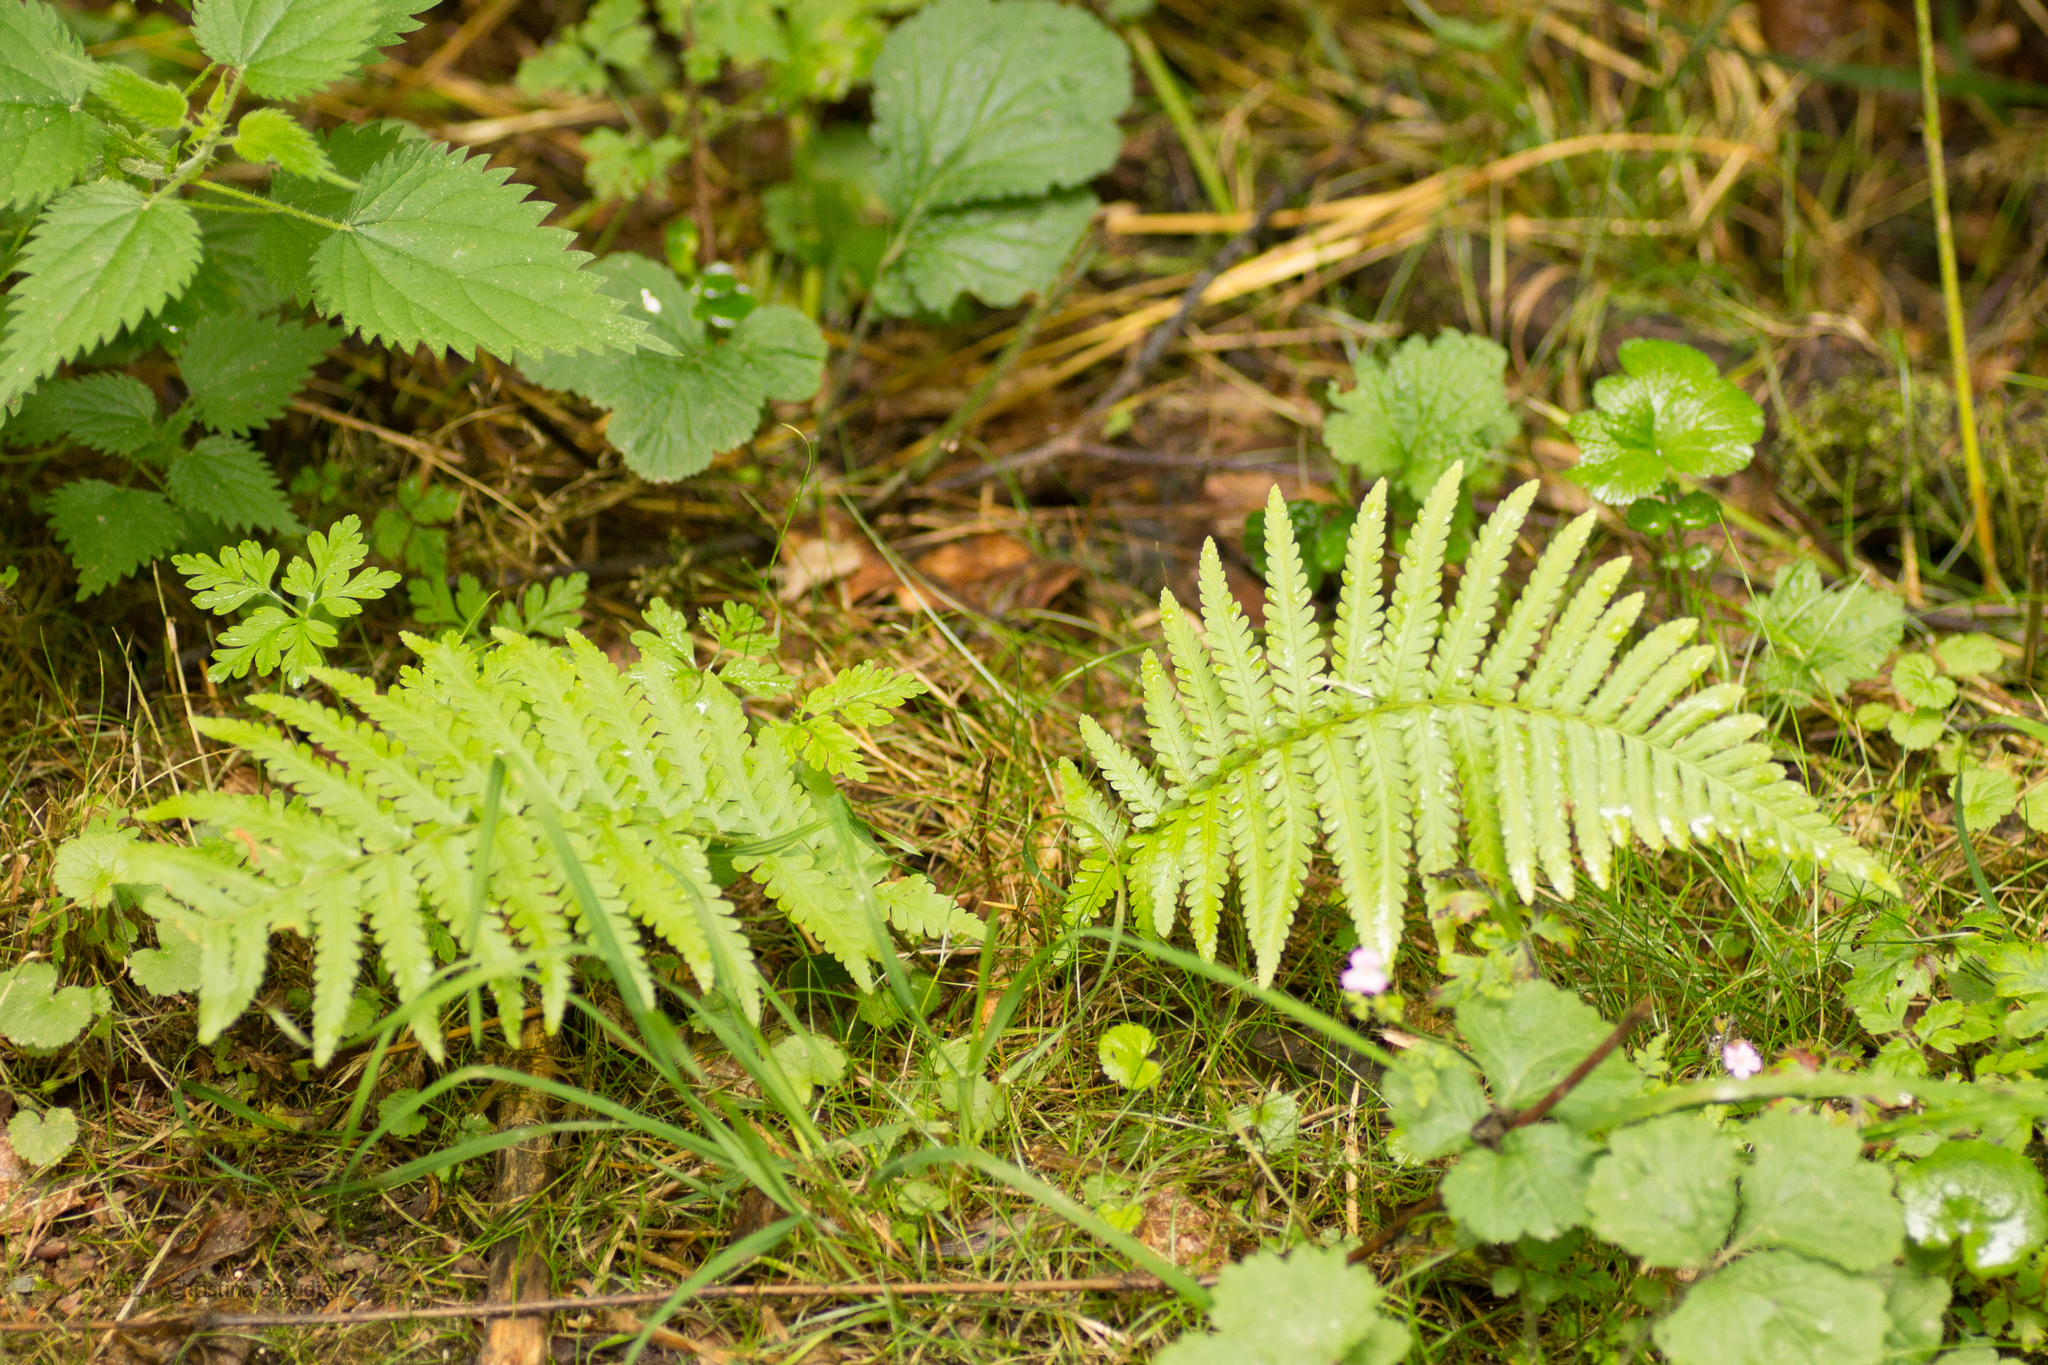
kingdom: Plantae
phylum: Tracheophyta
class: Polypodiopsida
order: Polypodiales
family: Dryopteridaceae
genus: Dryopteris
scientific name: Dryopteris filix-mas
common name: Male fern
